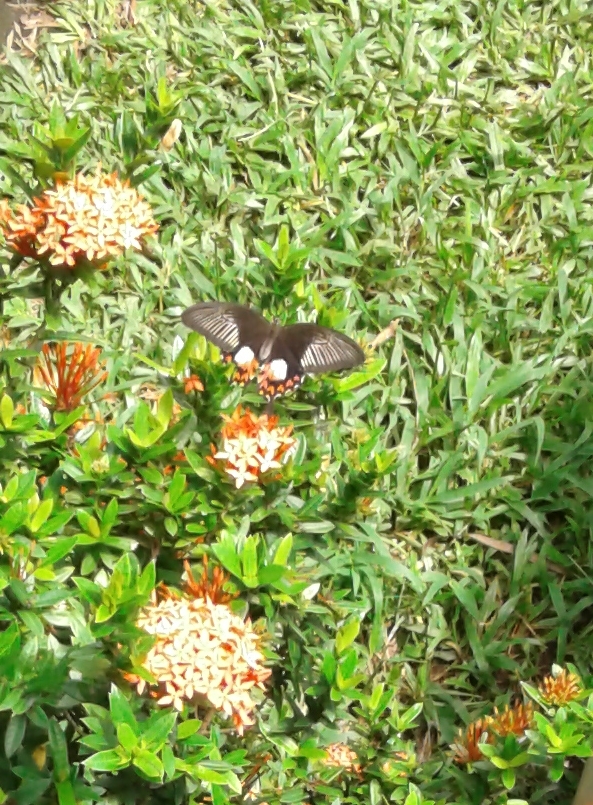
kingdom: Animalia
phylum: Arthropoda
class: Insecta
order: Lepidoptera
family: Papilionidae
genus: Papilio
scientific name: Papilio polytes
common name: Common mormon
